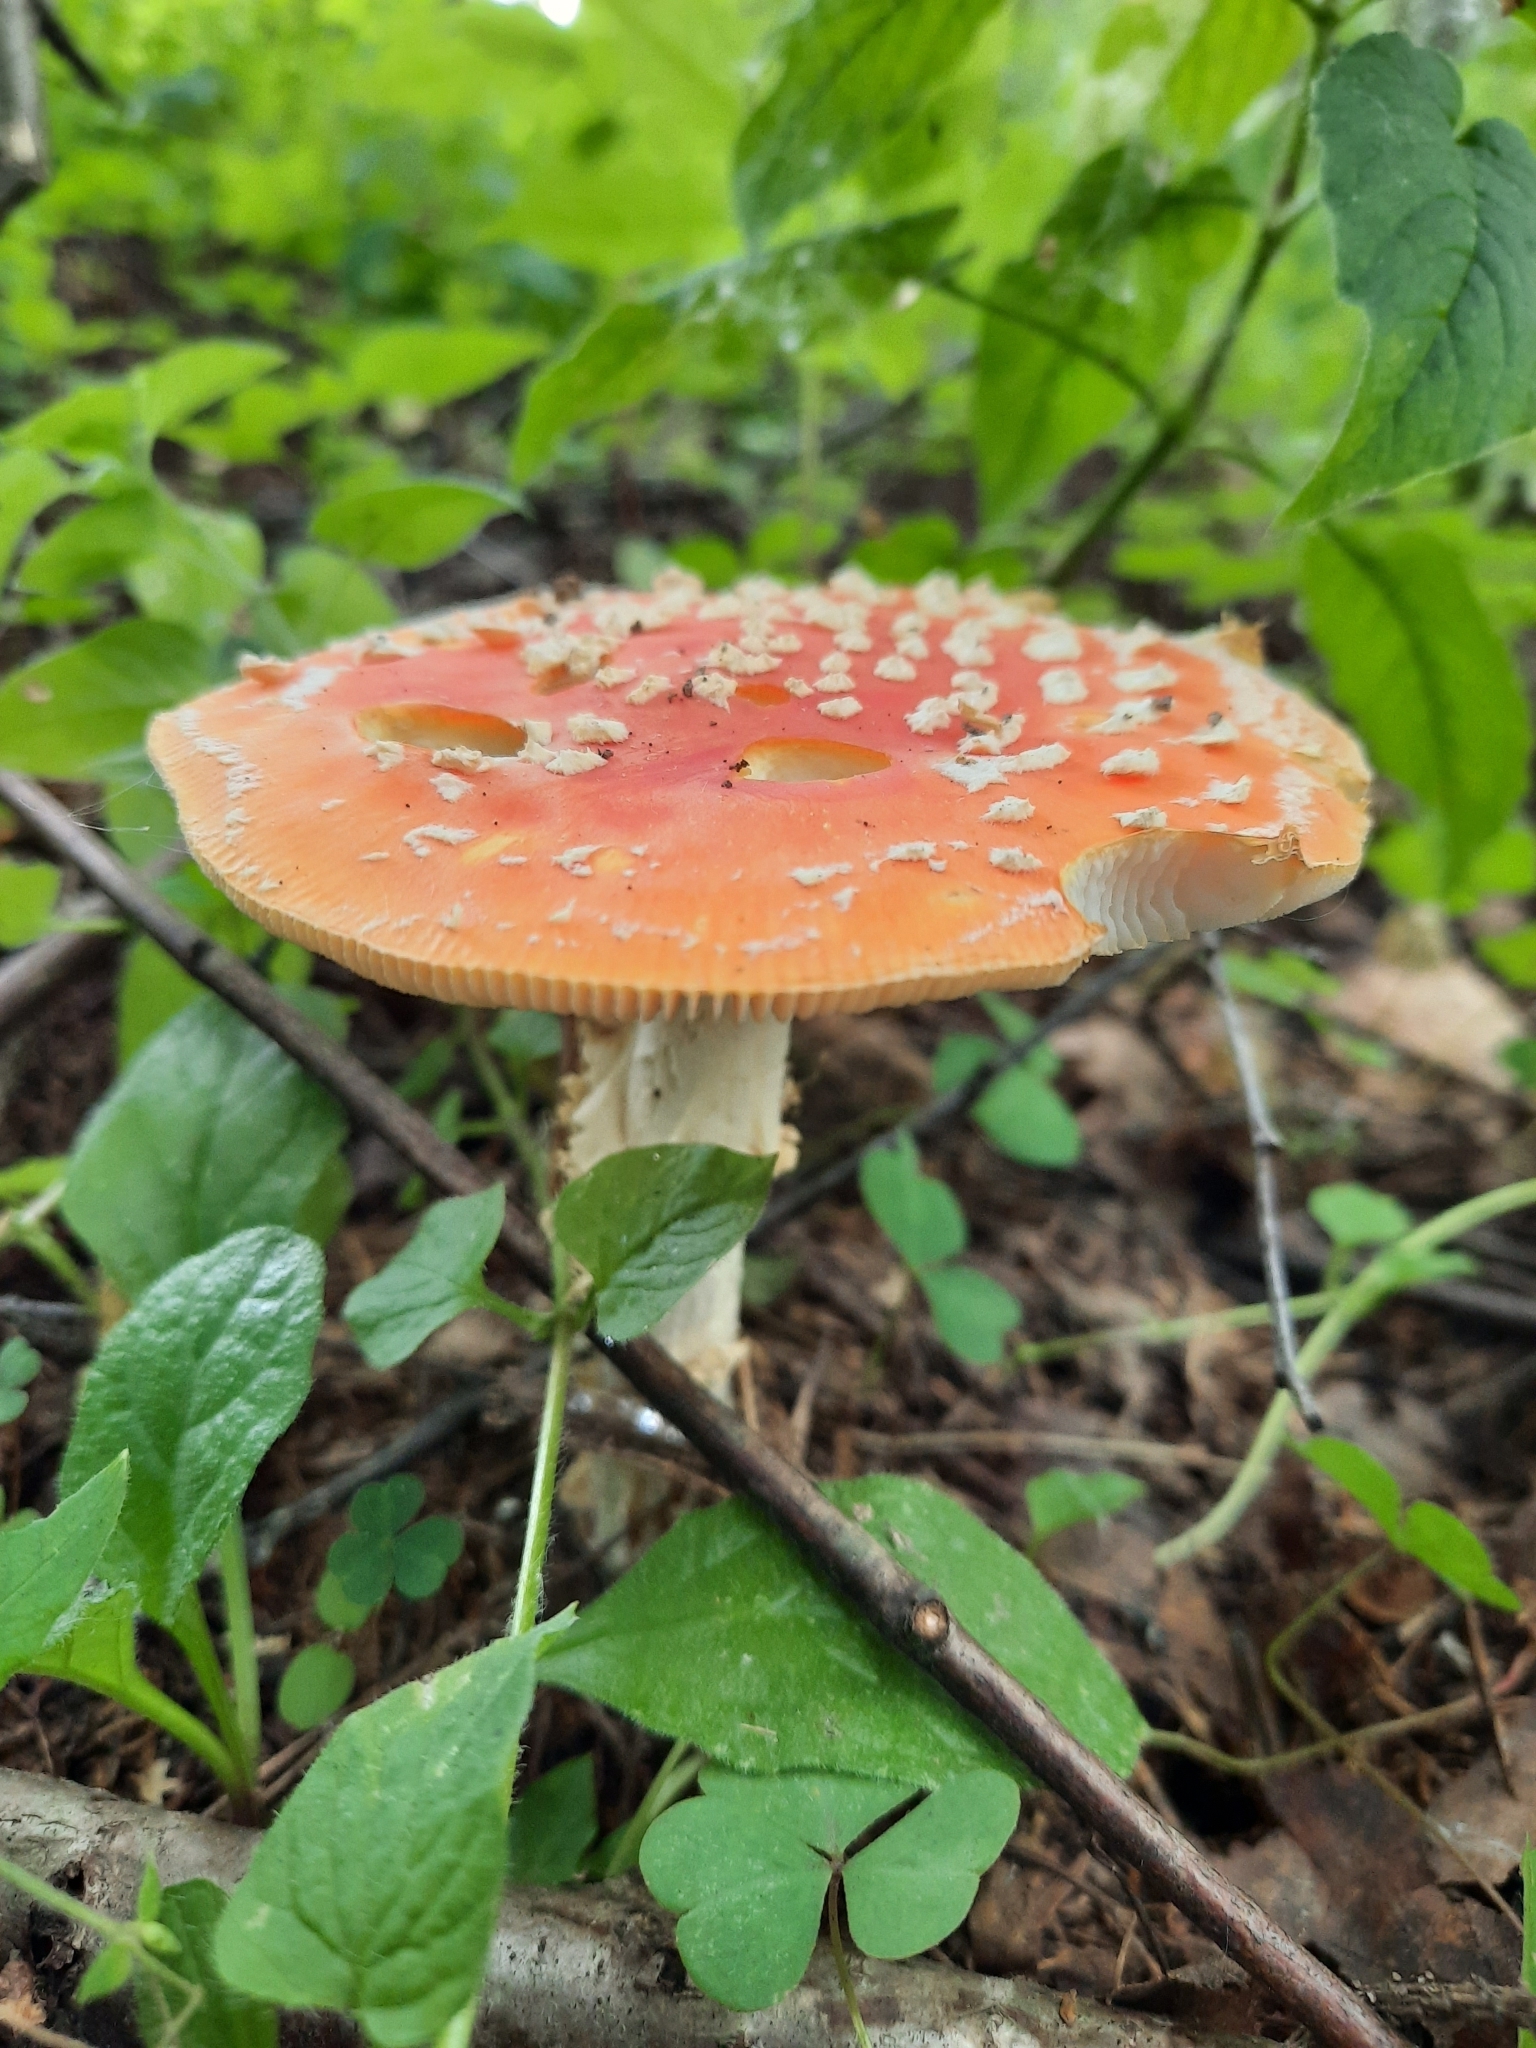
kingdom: Fungi
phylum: Basidiomycota
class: Agaricomycetes
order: Agaricales
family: Amanitaceae
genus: Amanita
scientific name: Amanita muscaria
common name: Fly agaric
